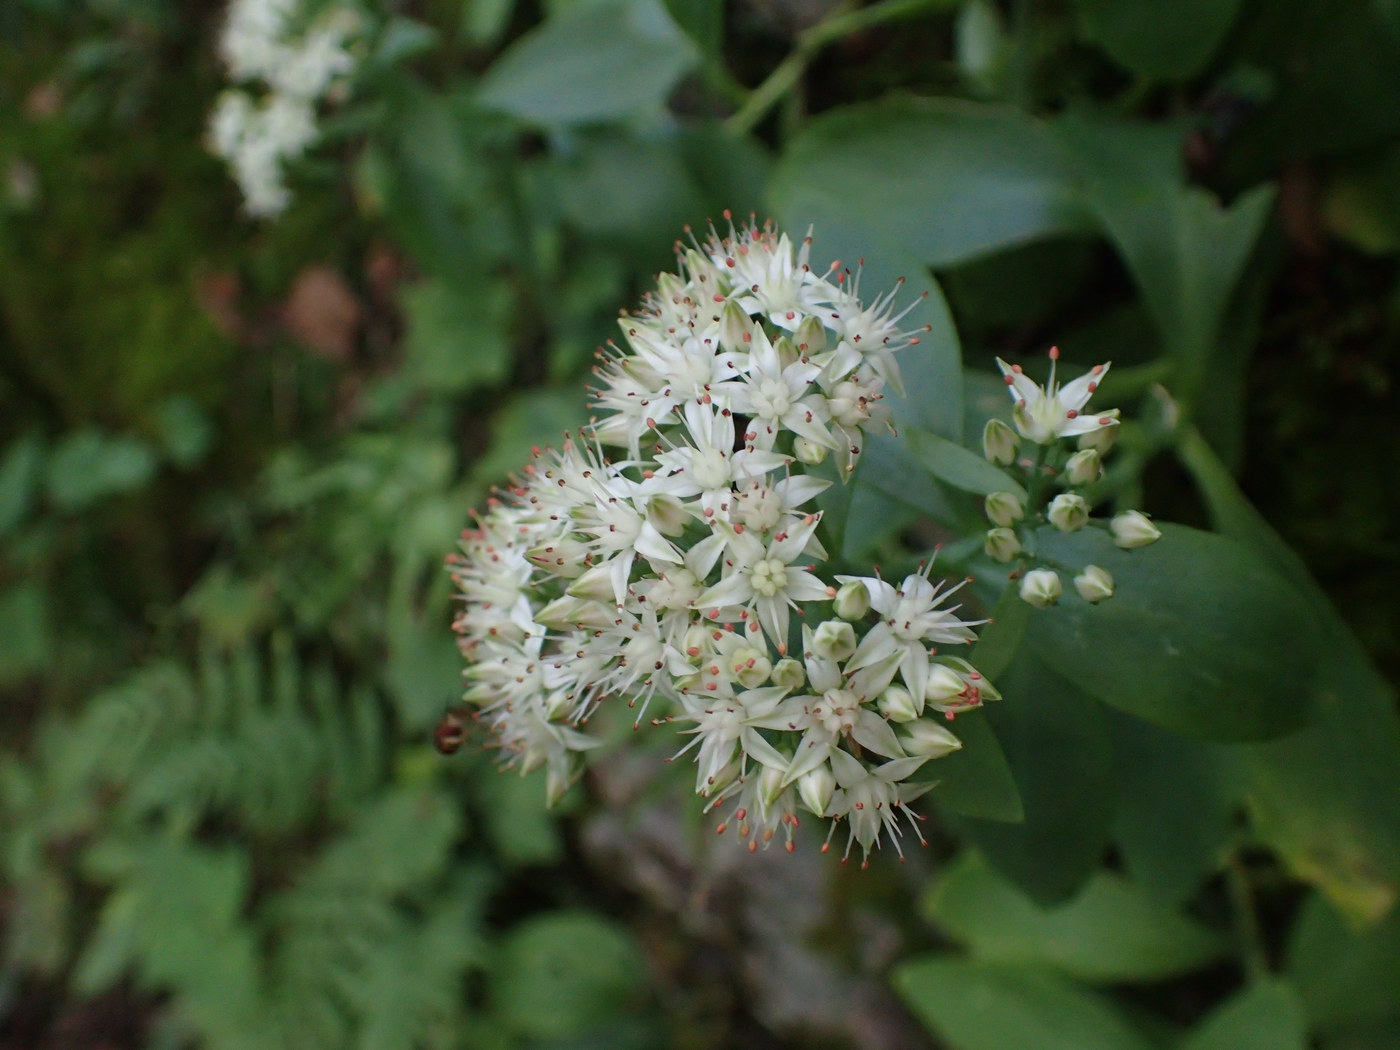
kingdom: Plantae
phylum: Tracheophyta
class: Magnoliopsida
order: Saxifragales
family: Crassulaceae
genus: Hylotelephium
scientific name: Hylotelephium telephioides
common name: Allegheny stonecrop
